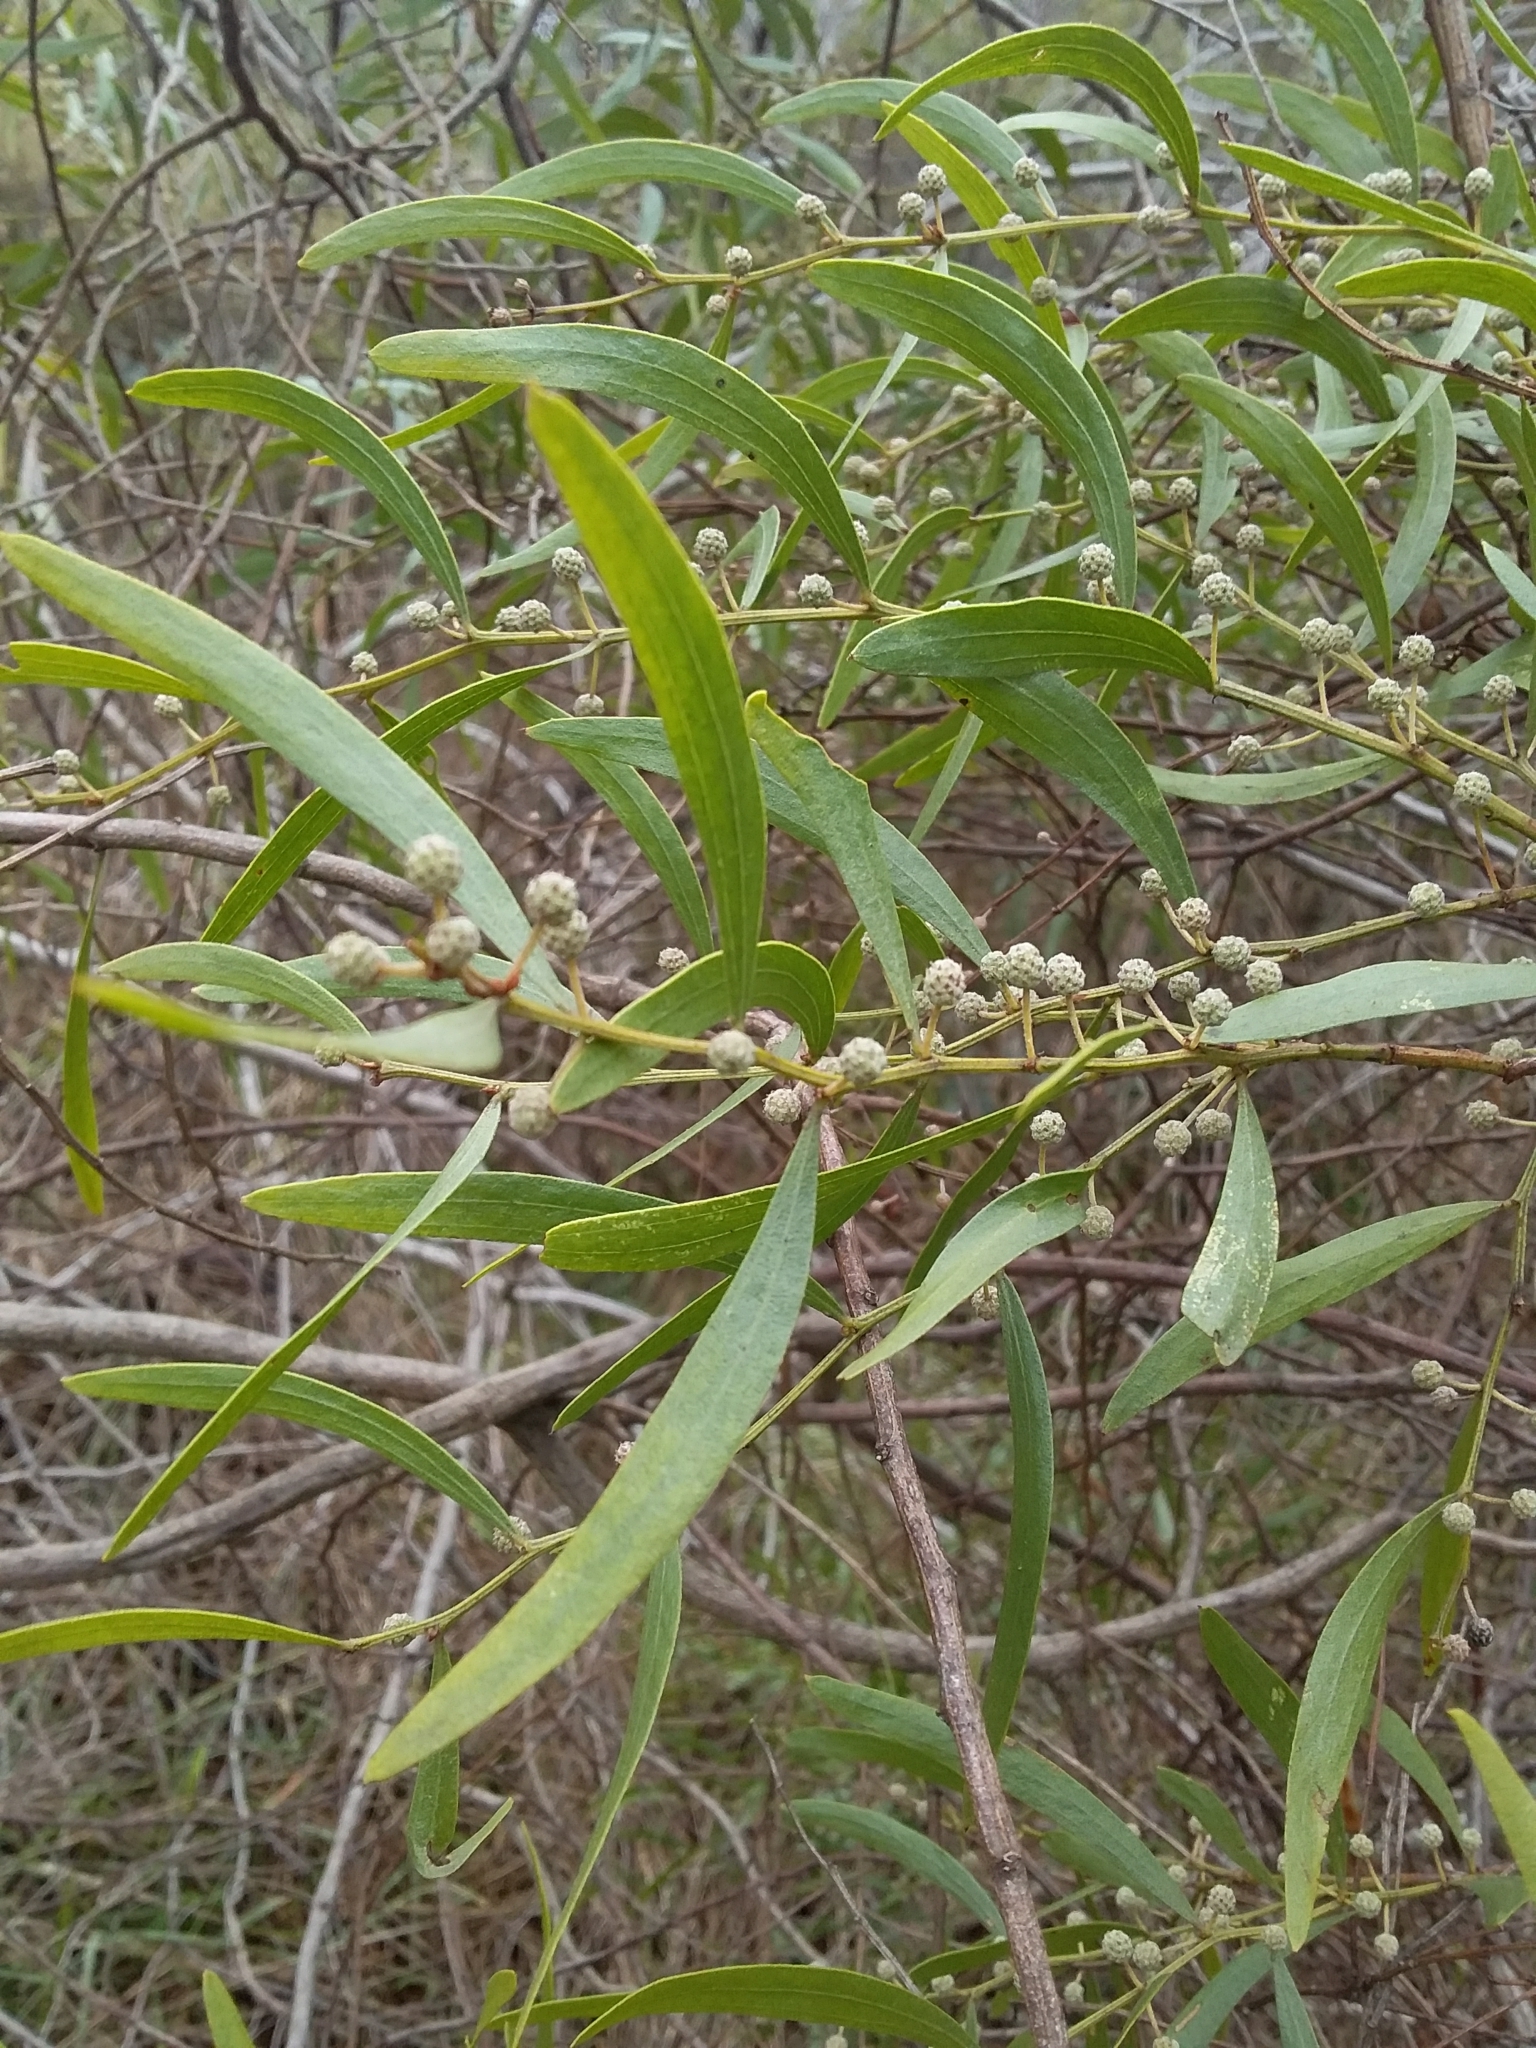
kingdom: Plantae
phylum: Tracheophyta
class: Magnoliopsida
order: Fabales
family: Fabaceae
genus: Acacia
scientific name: Acacia verniciflua
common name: Varnish wattle
